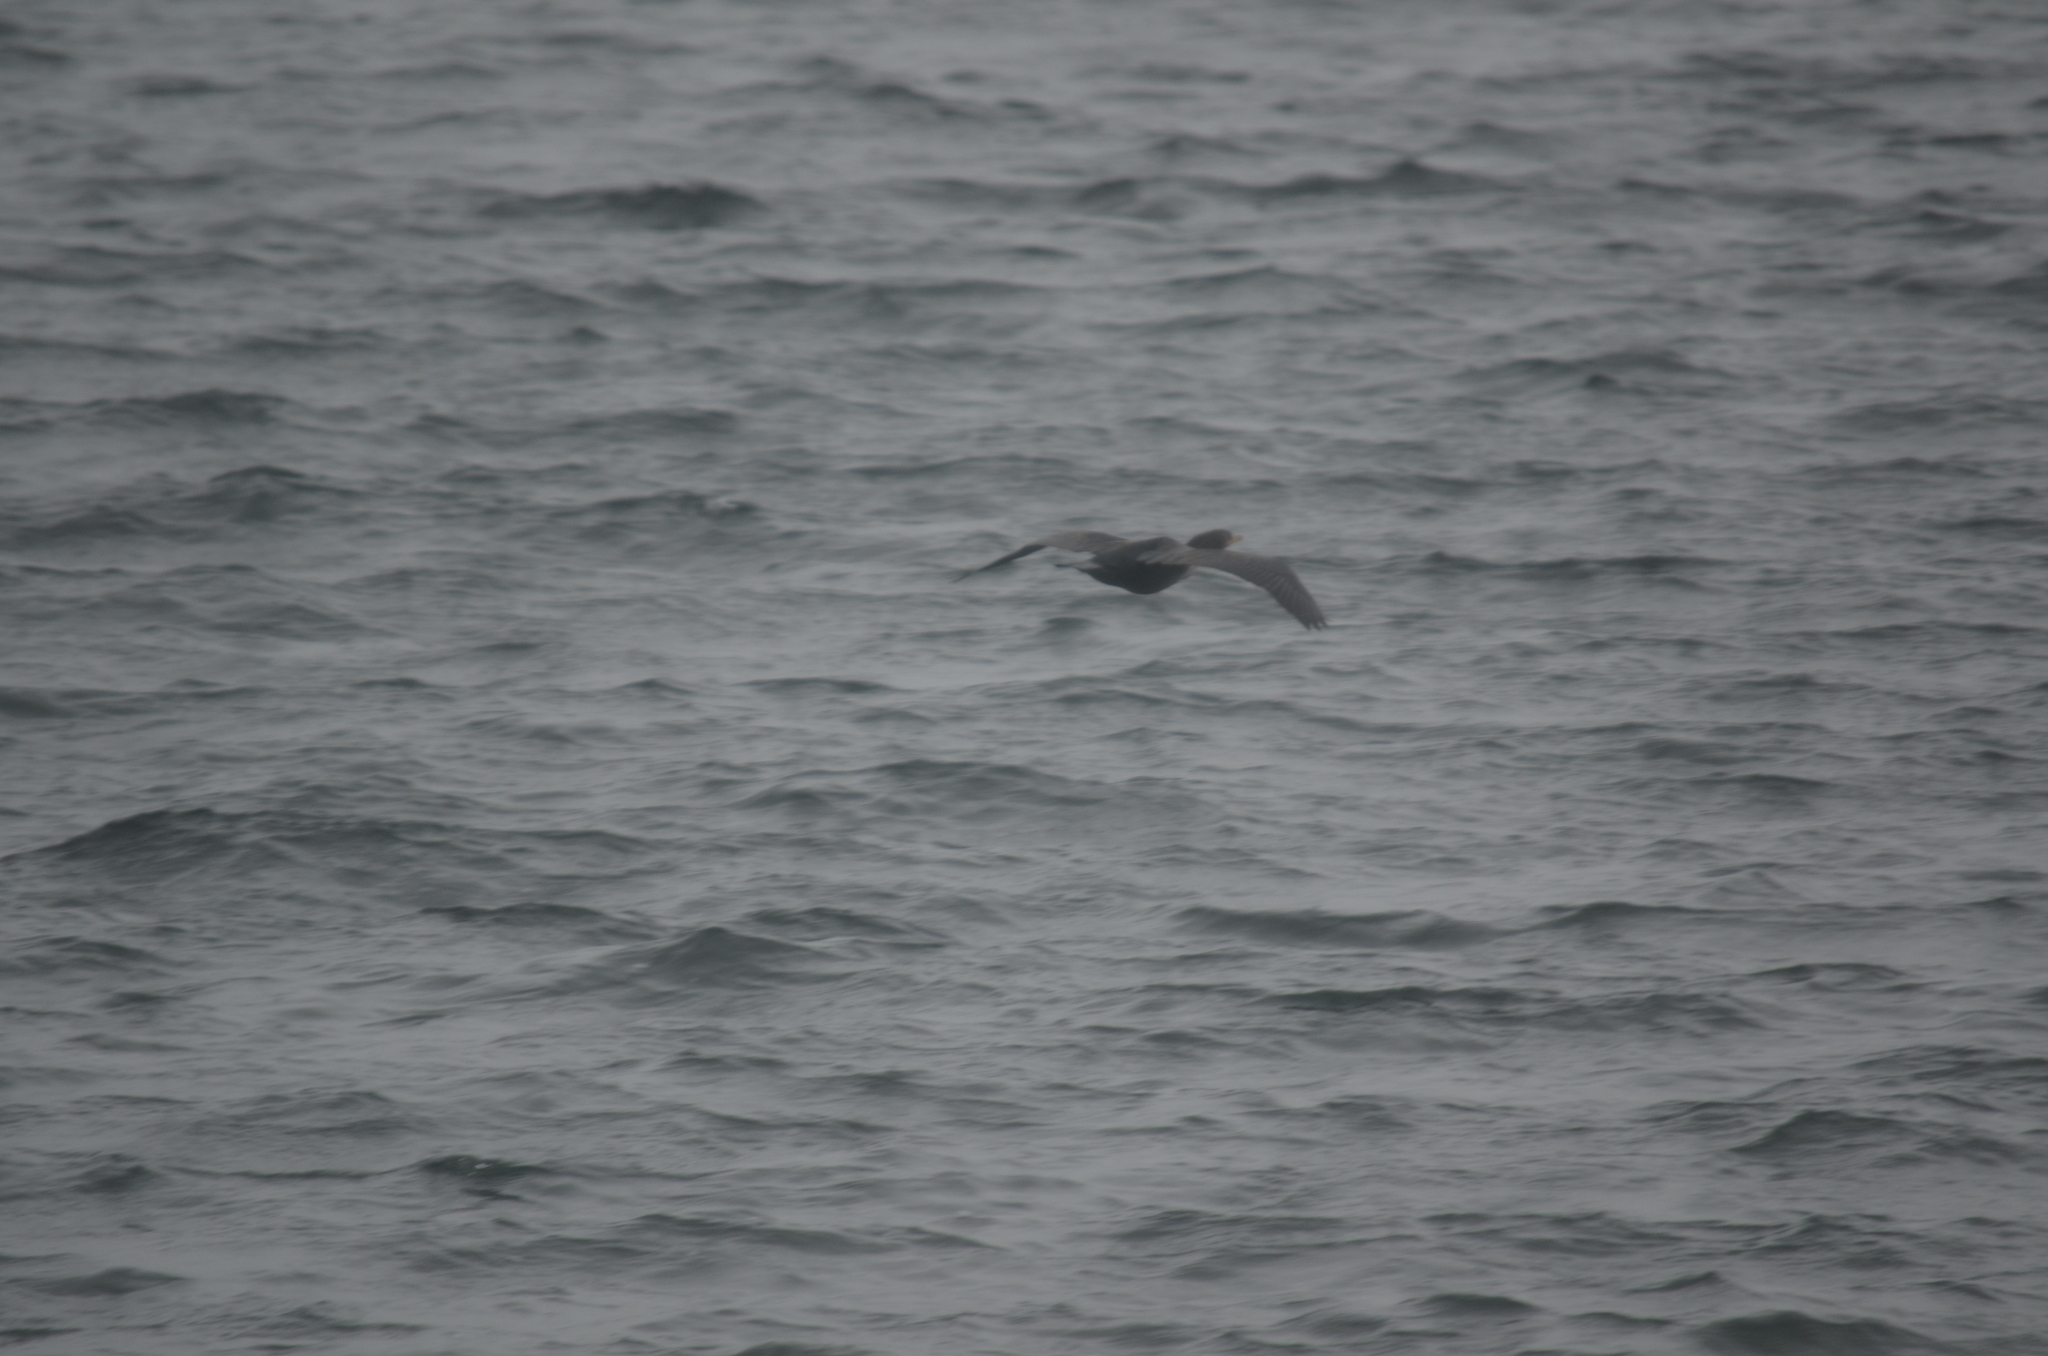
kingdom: Animalia
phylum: Chordata
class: Aves
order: Suliformes
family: Phalacrocoracidae
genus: Phalacrocorax
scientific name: Phalacrocorax auritus
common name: Double-crested cormorant
